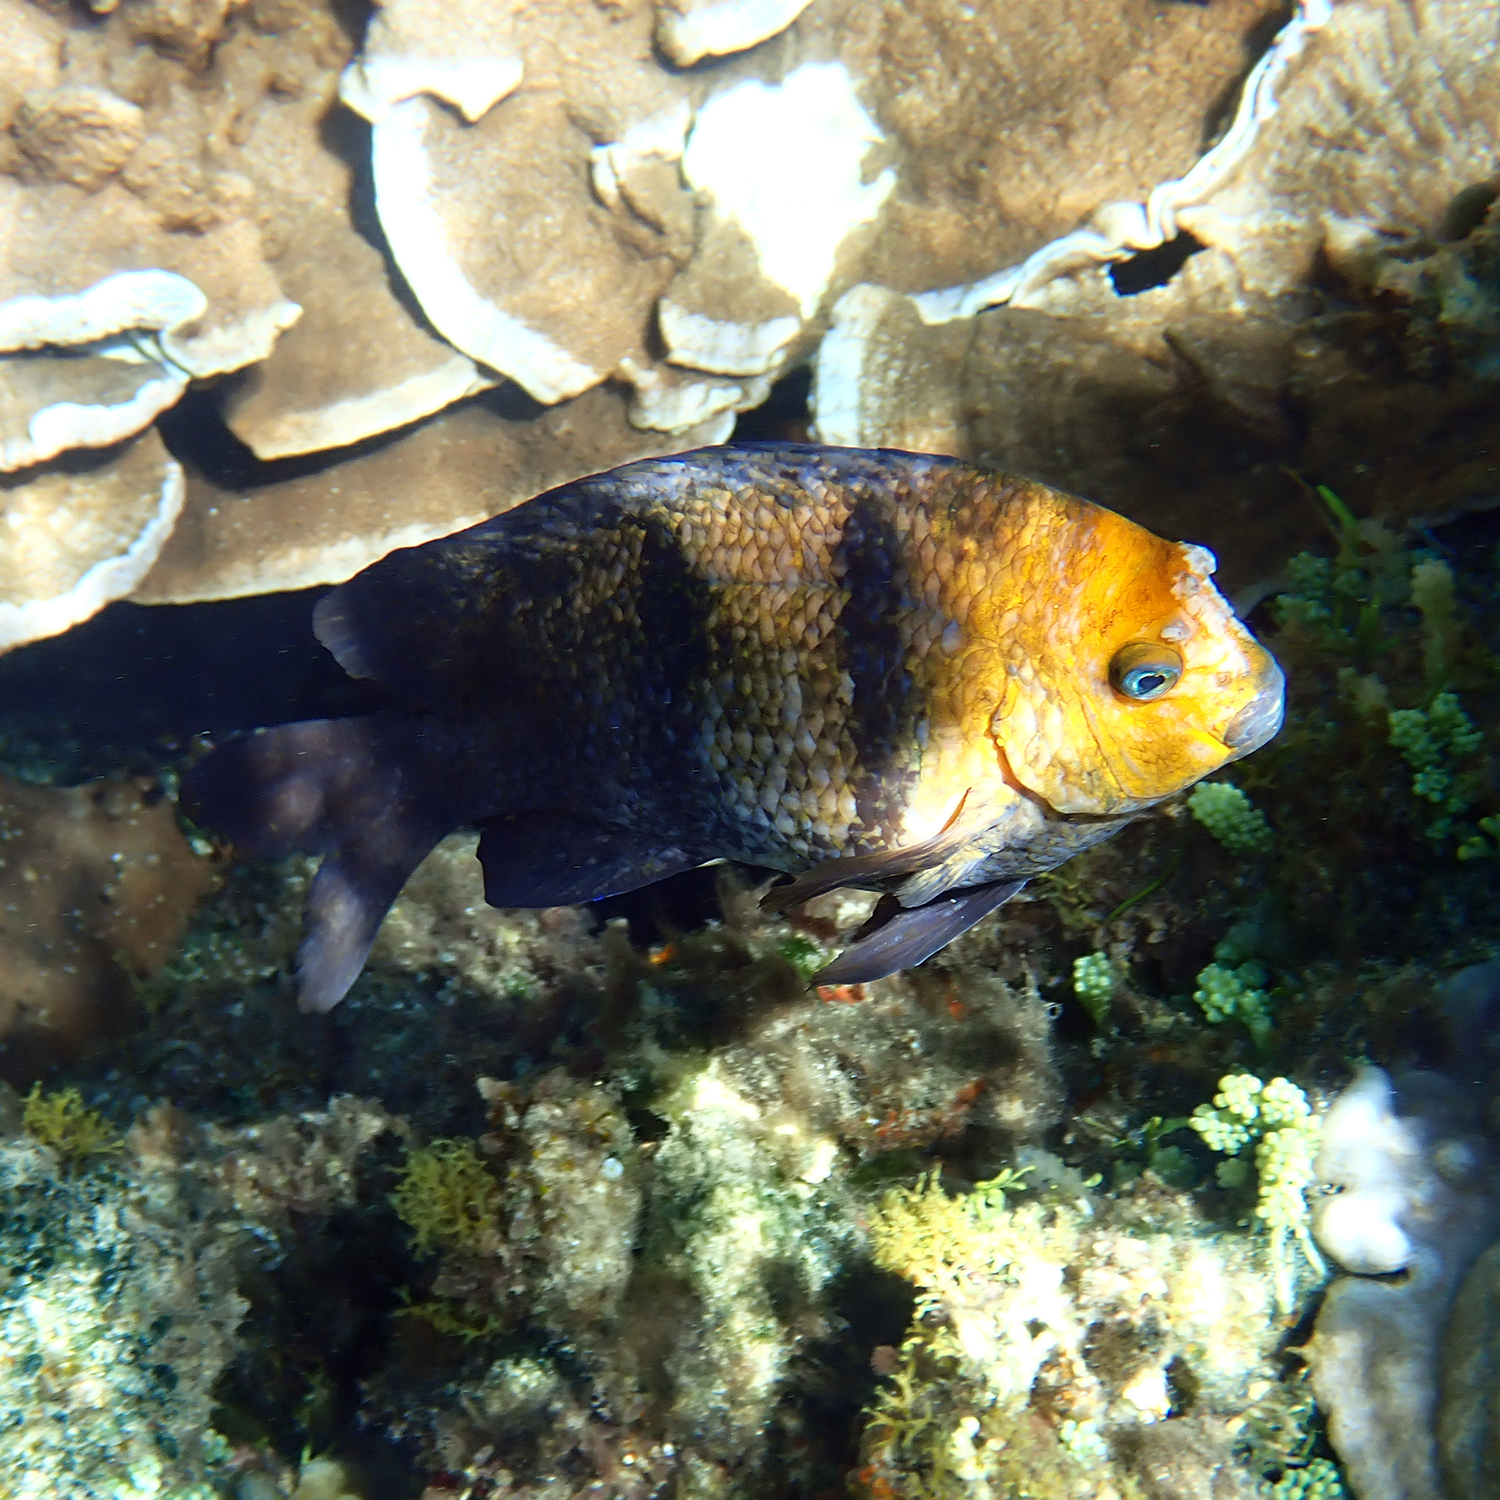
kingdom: Animalia
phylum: Chordata
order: Perciformes
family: Pomacentridae
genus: Parma
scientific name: Parma polylepis
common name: Banded parma
